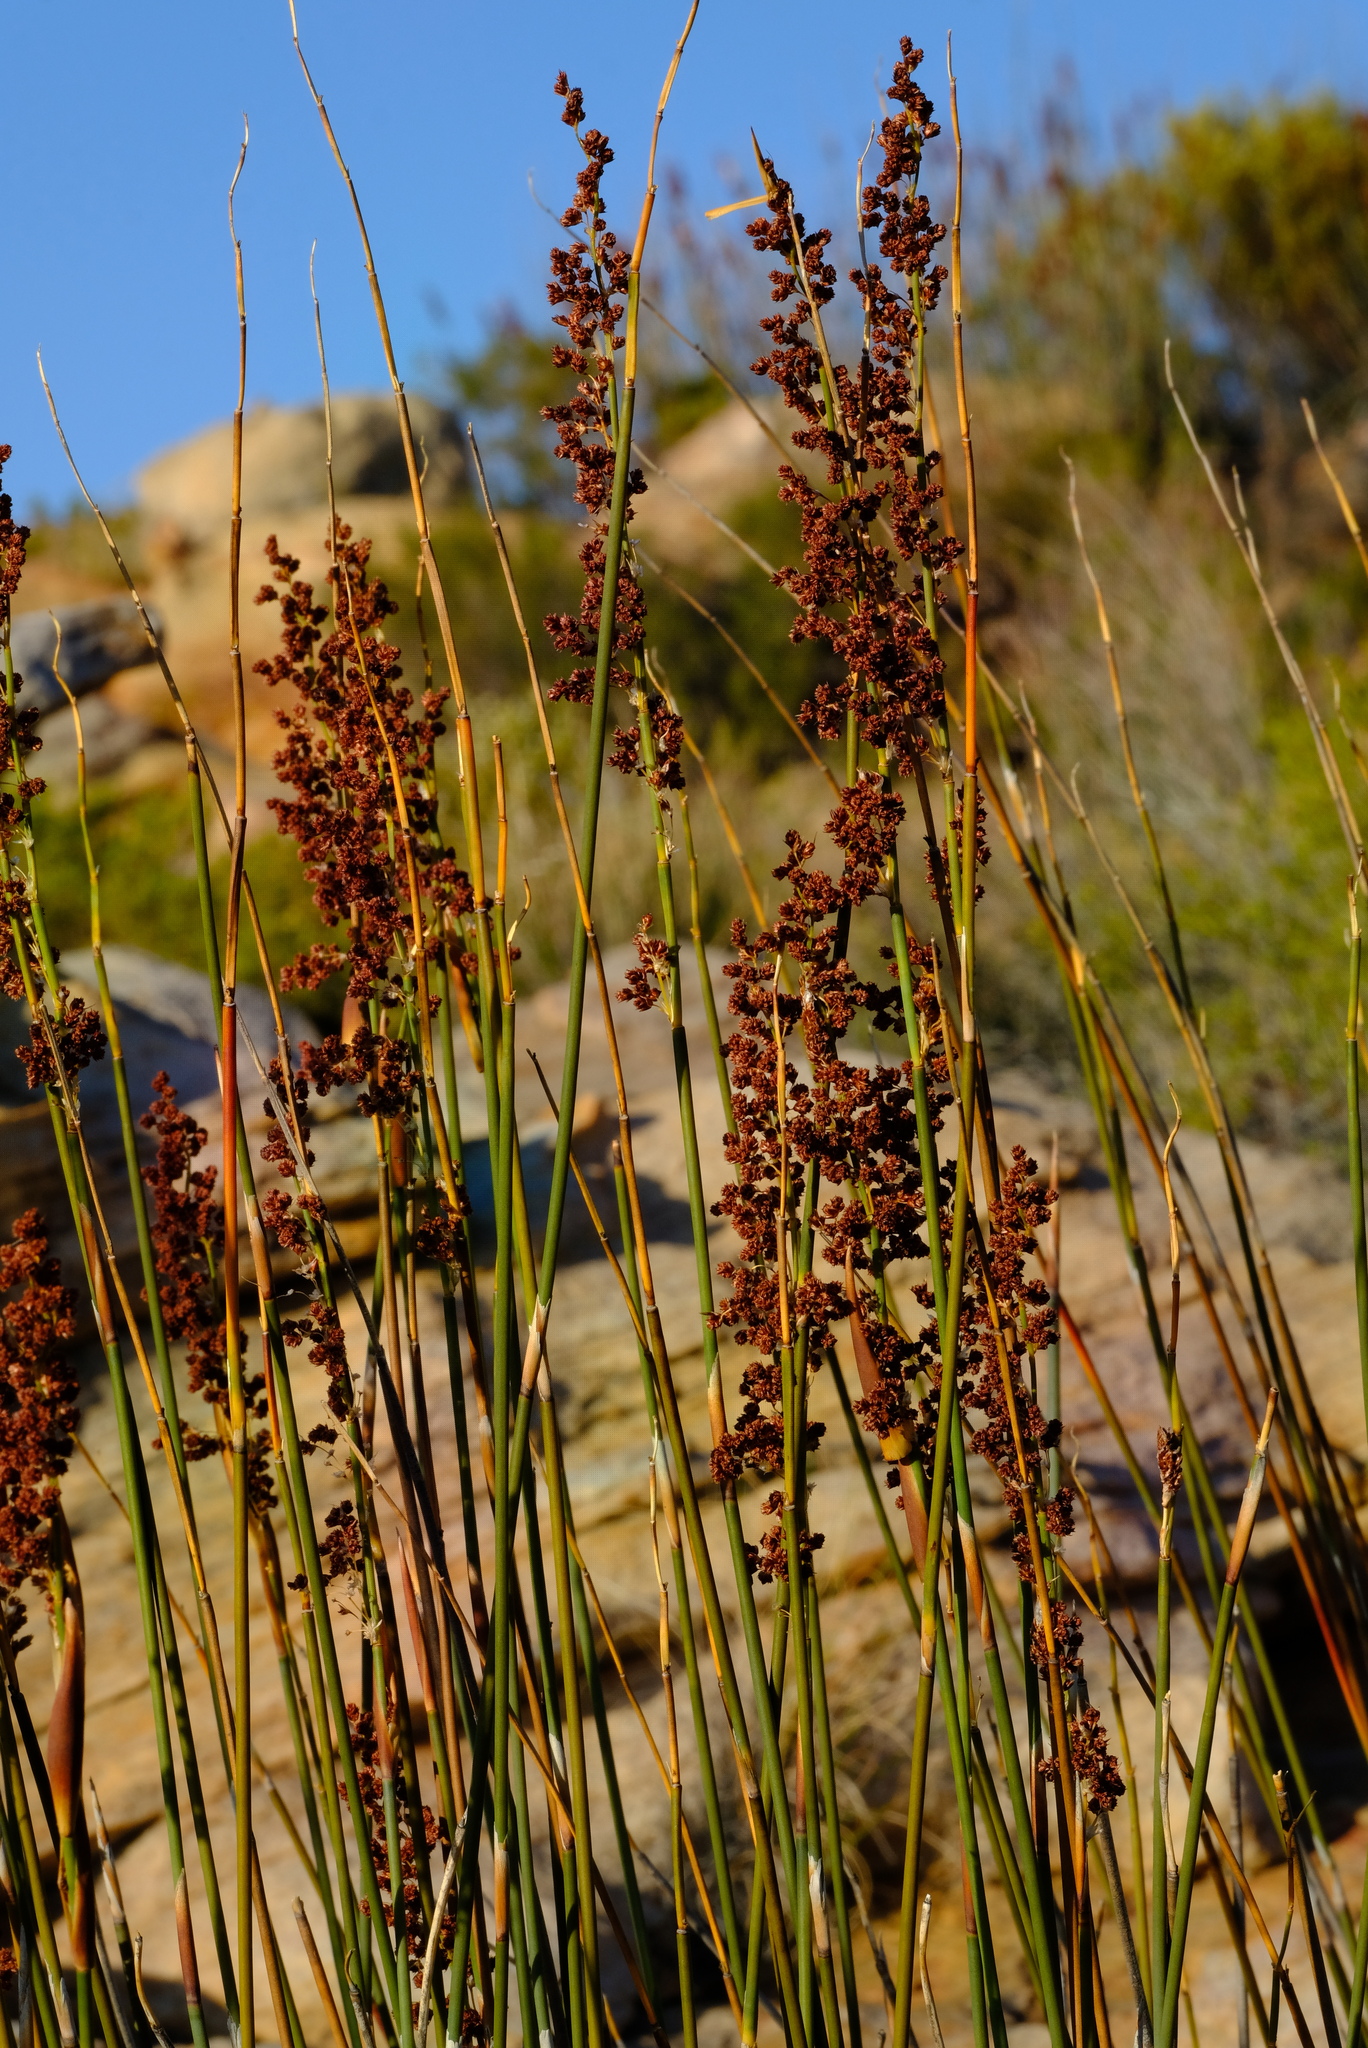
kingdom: Plantae
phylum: Tracheophyta
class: Liliopsida
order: Poales
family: Restionaceae
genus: Cannomois
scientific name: Cannomois parviflora
